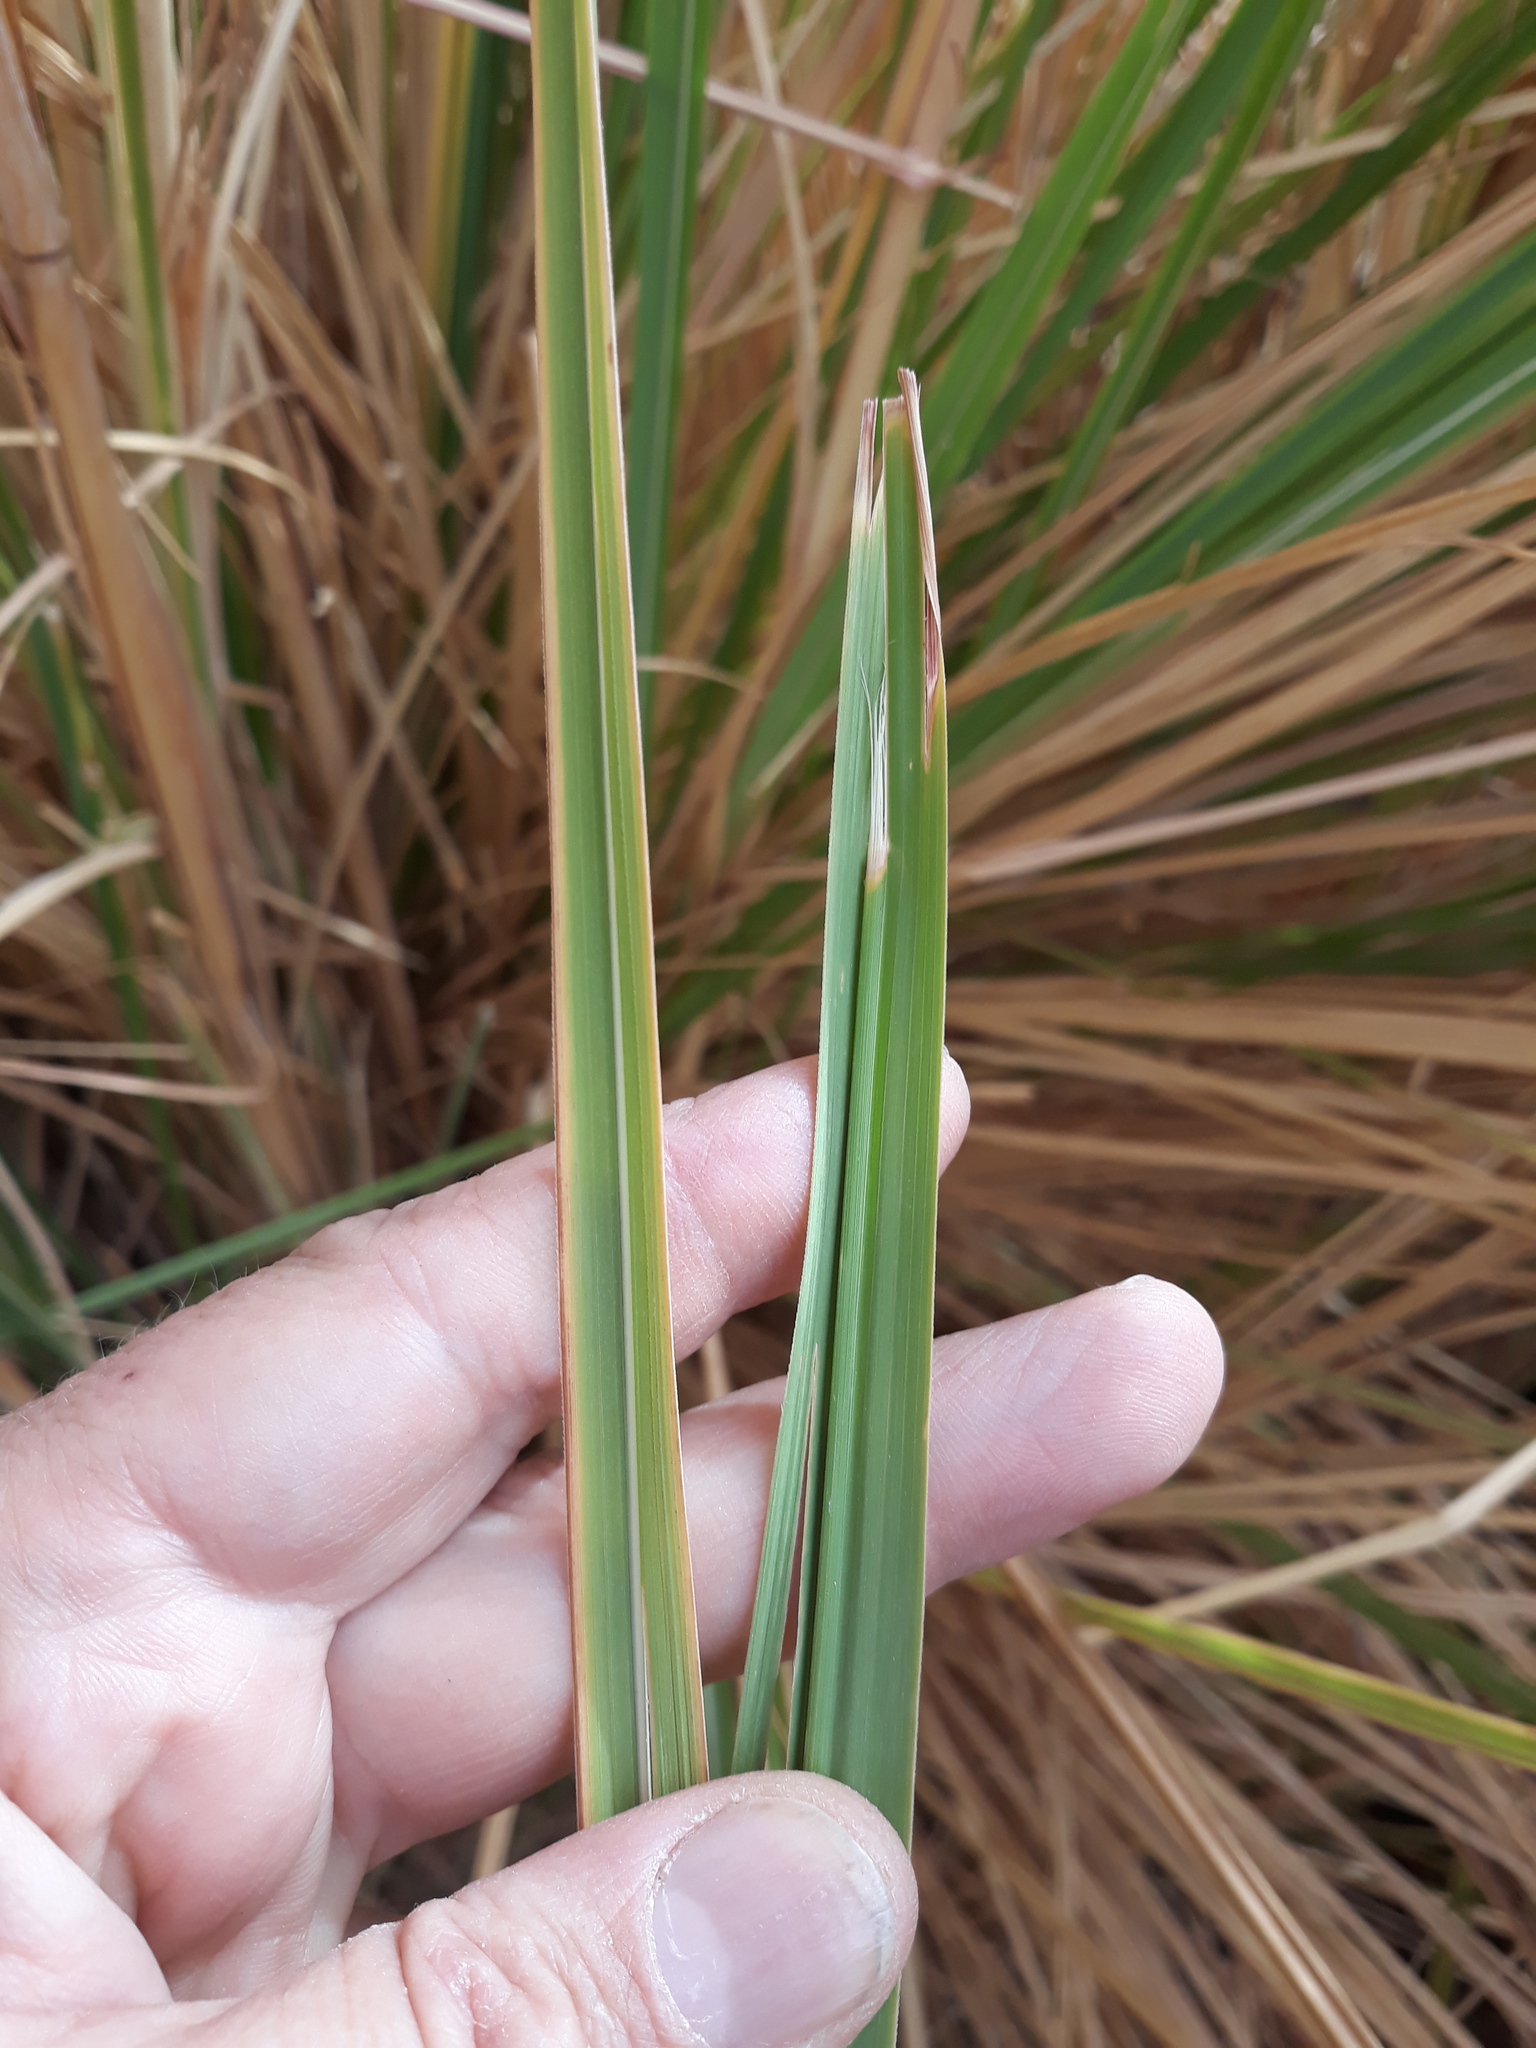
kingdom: Plantae
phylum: Tracheophyta
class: Liliopsida
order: Poales
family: Poaceae
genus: Tripidium
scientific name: Tripidium ravennae
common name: Ravenna grass
